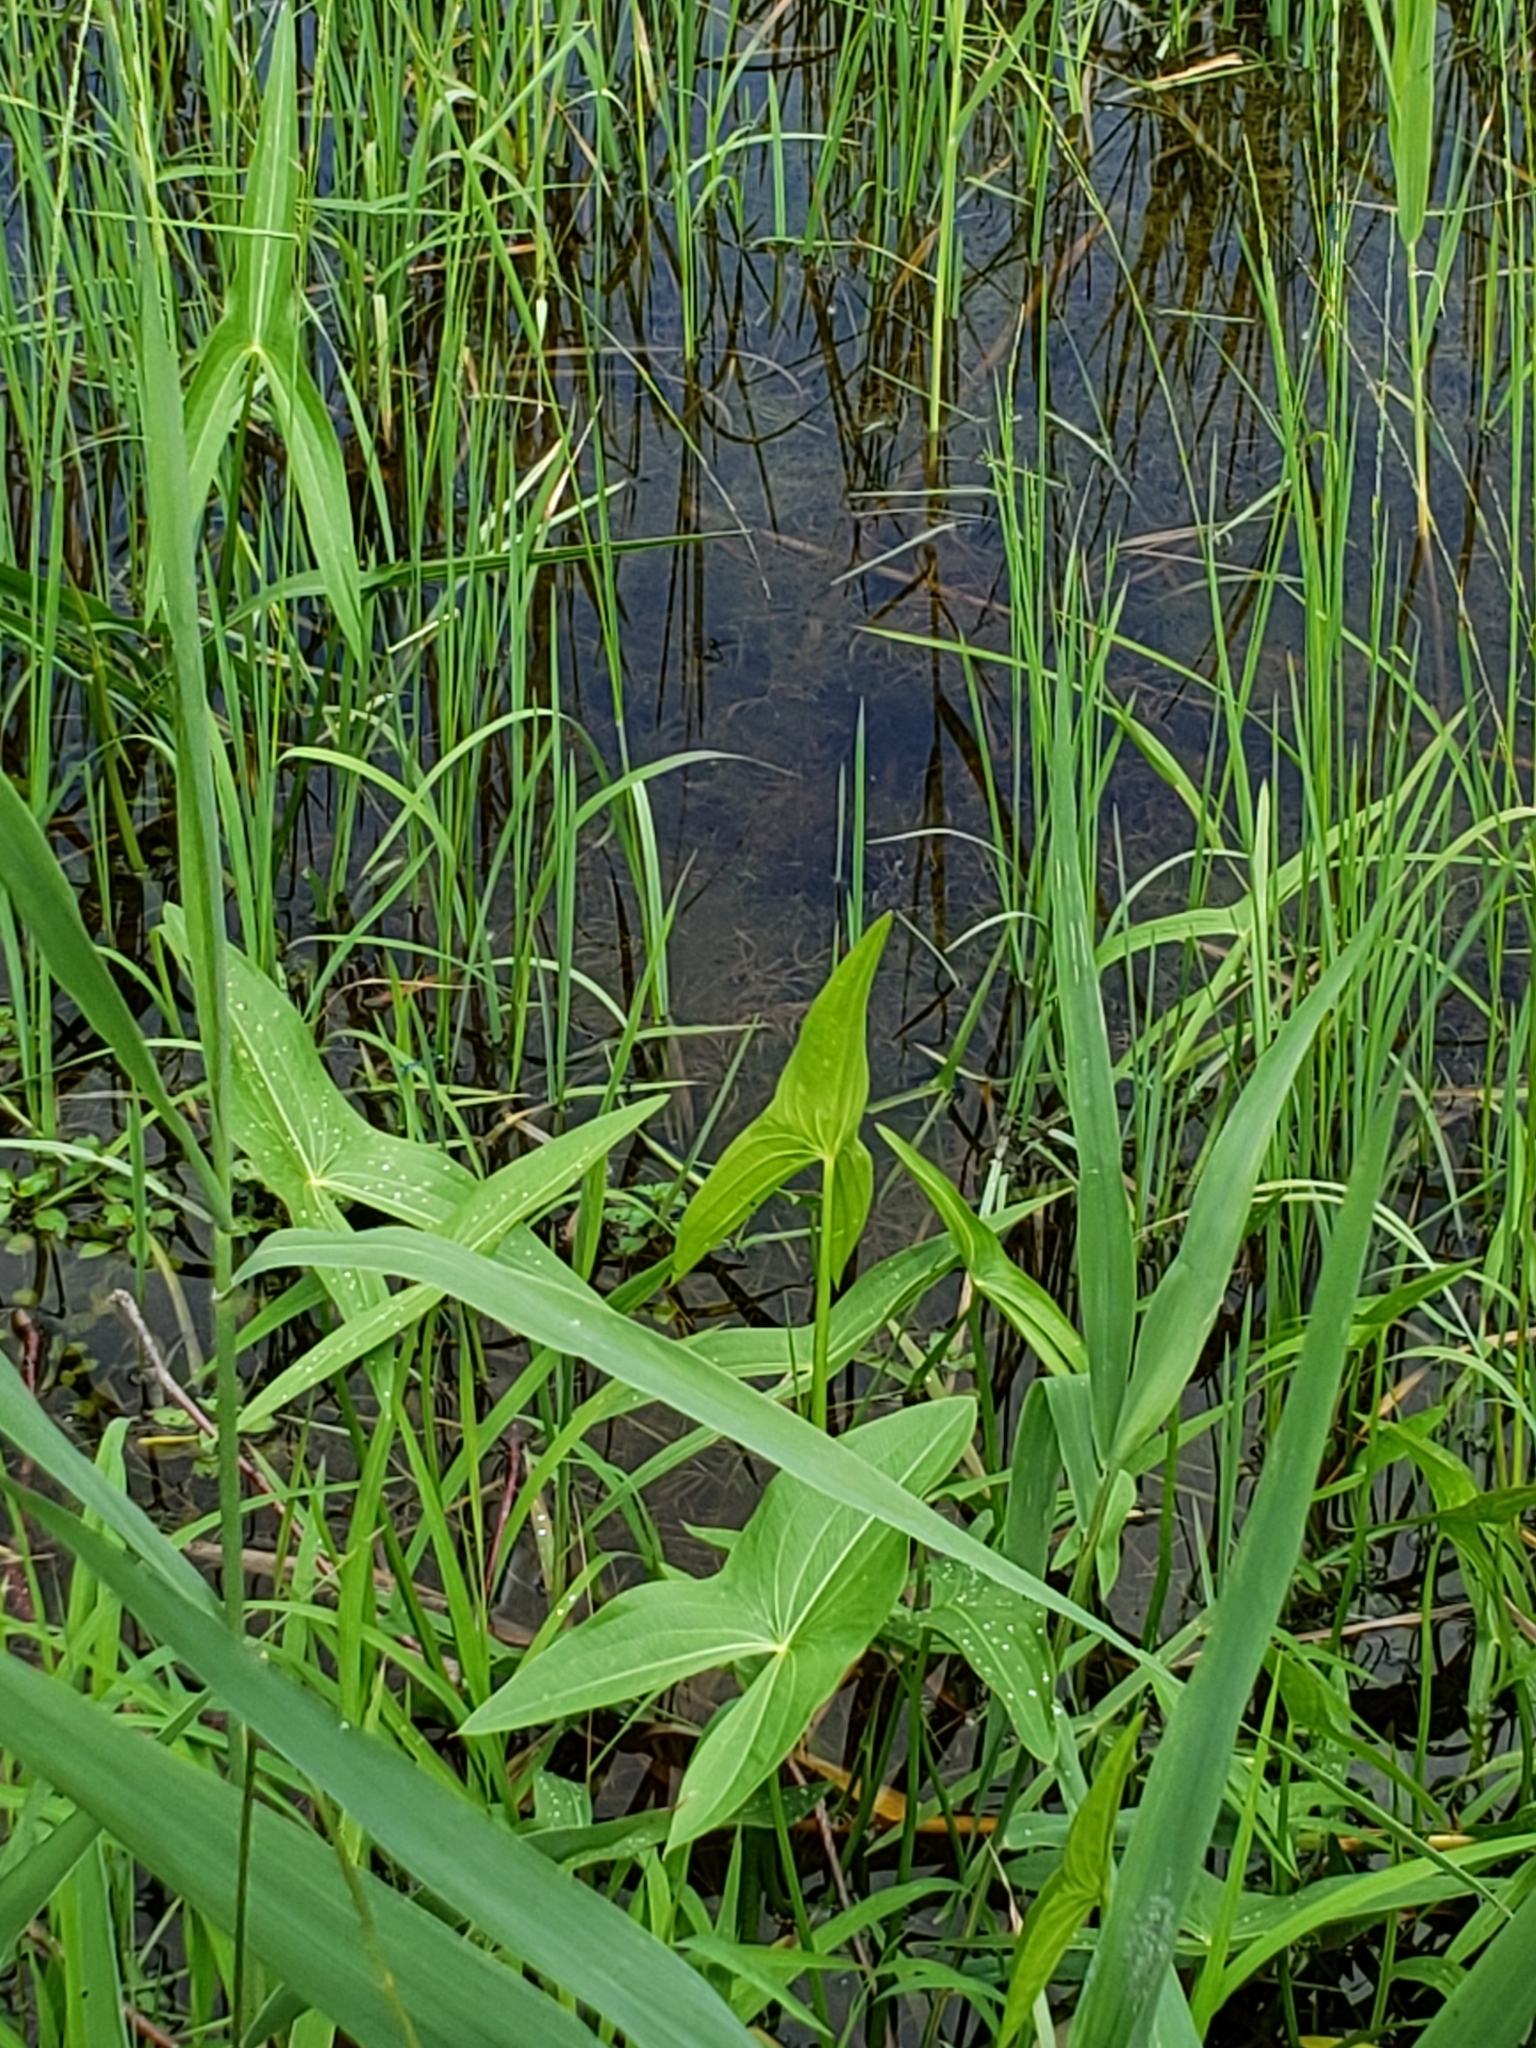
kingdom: Plantae
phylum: Tracheophyta
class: Liliopsida
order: Alismatales
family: Alismataceae
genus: Sagittaria
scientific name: Sagittaria latifolia
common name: Duck-potato
